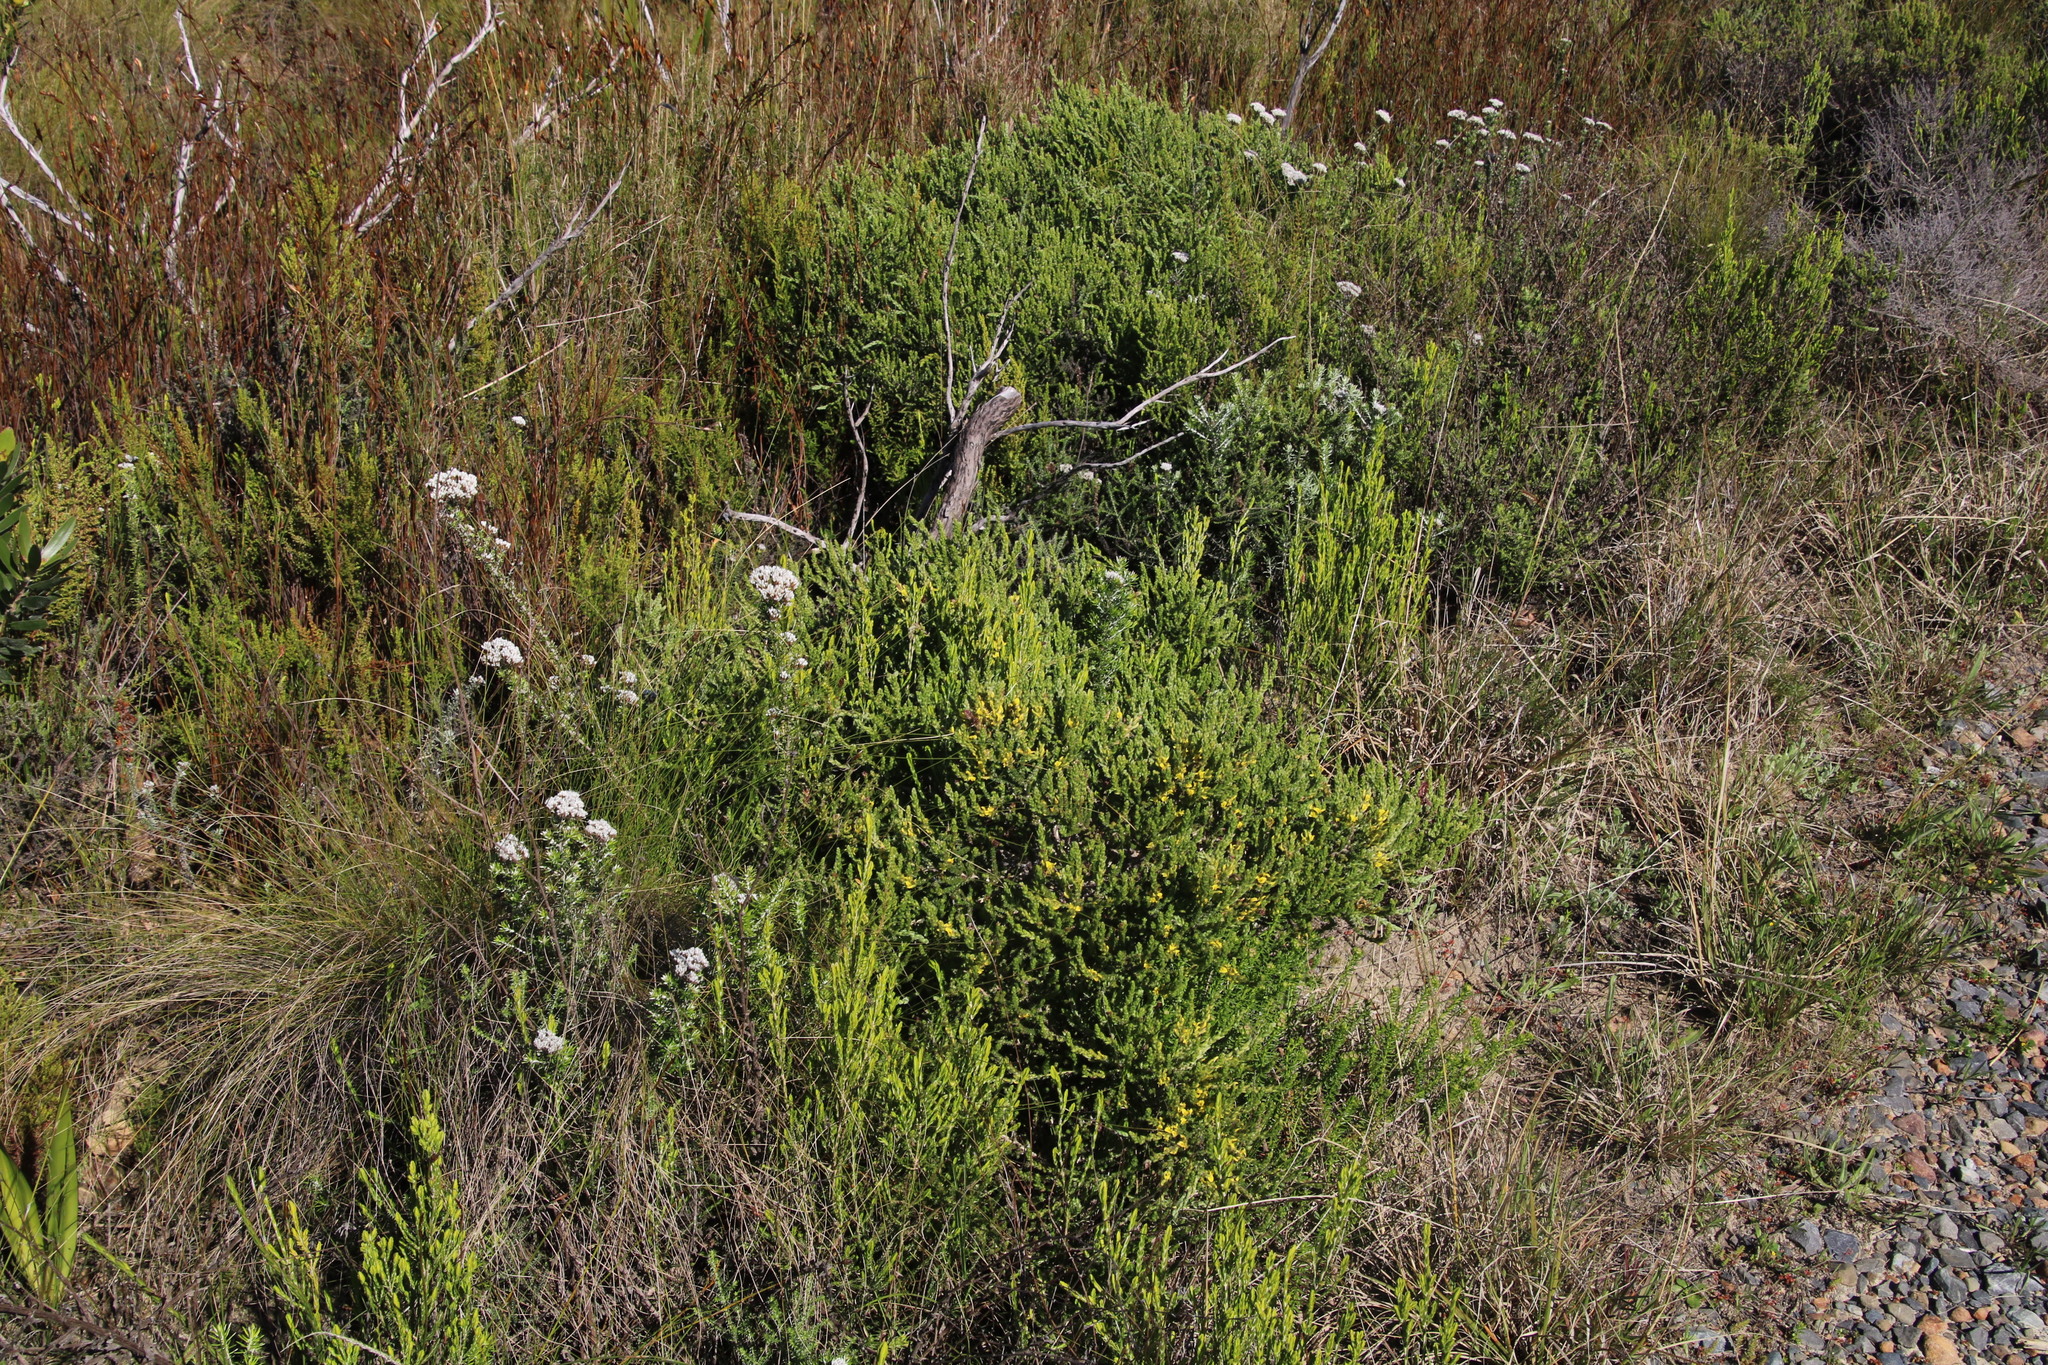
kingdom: Plantae
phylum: Tracheophyta
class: Magnoliopsida
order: Fabales
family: Fabaceae
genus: Aspalathus
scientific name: Aspalathus ericifolia
